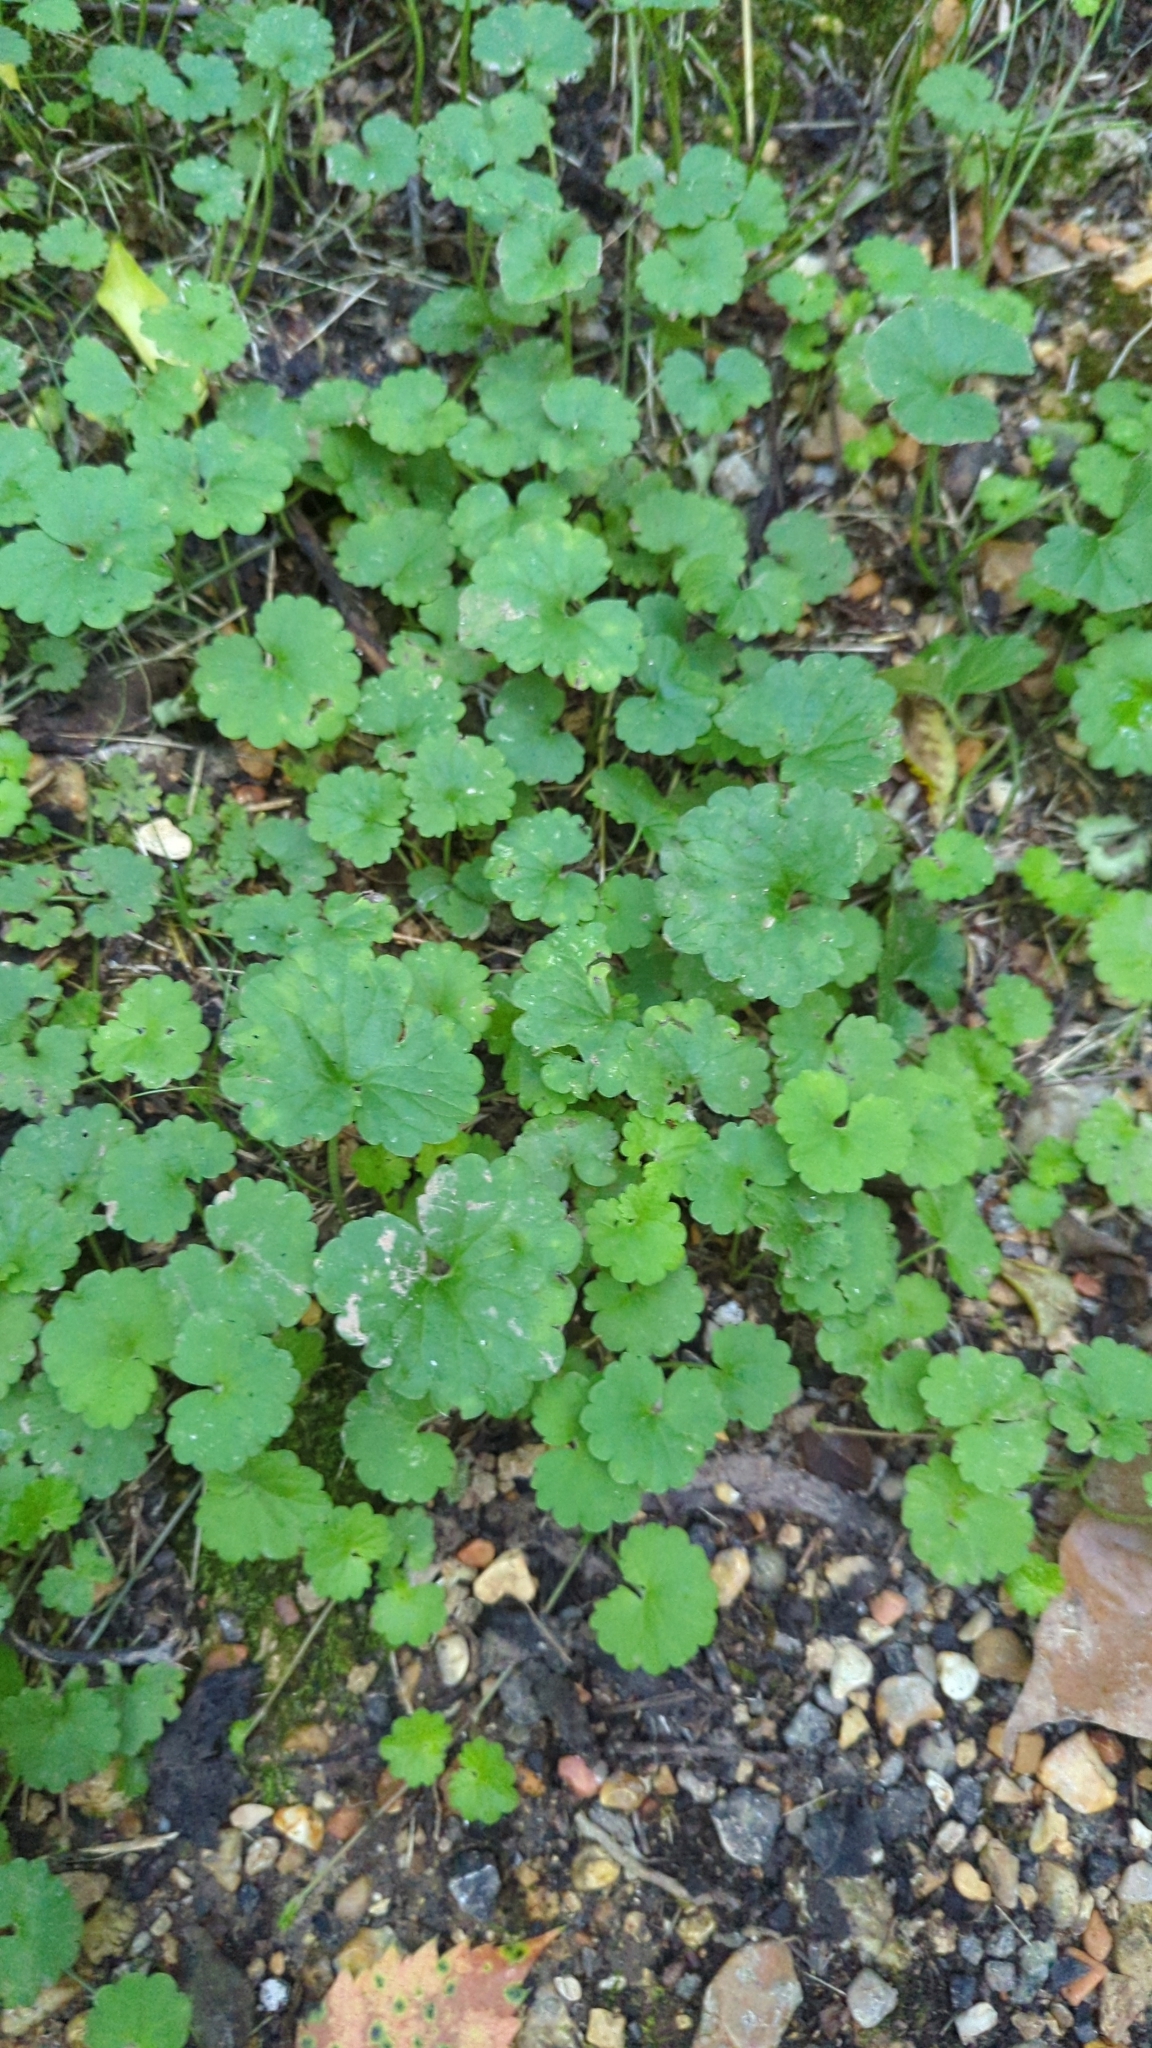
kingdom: Plantae
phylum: Tracheophyta
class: Magnoliopsida
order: Lamiales
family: Lamiaceae
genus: Glechoma
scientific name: Glechoma hederacea
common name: Ground ivy
